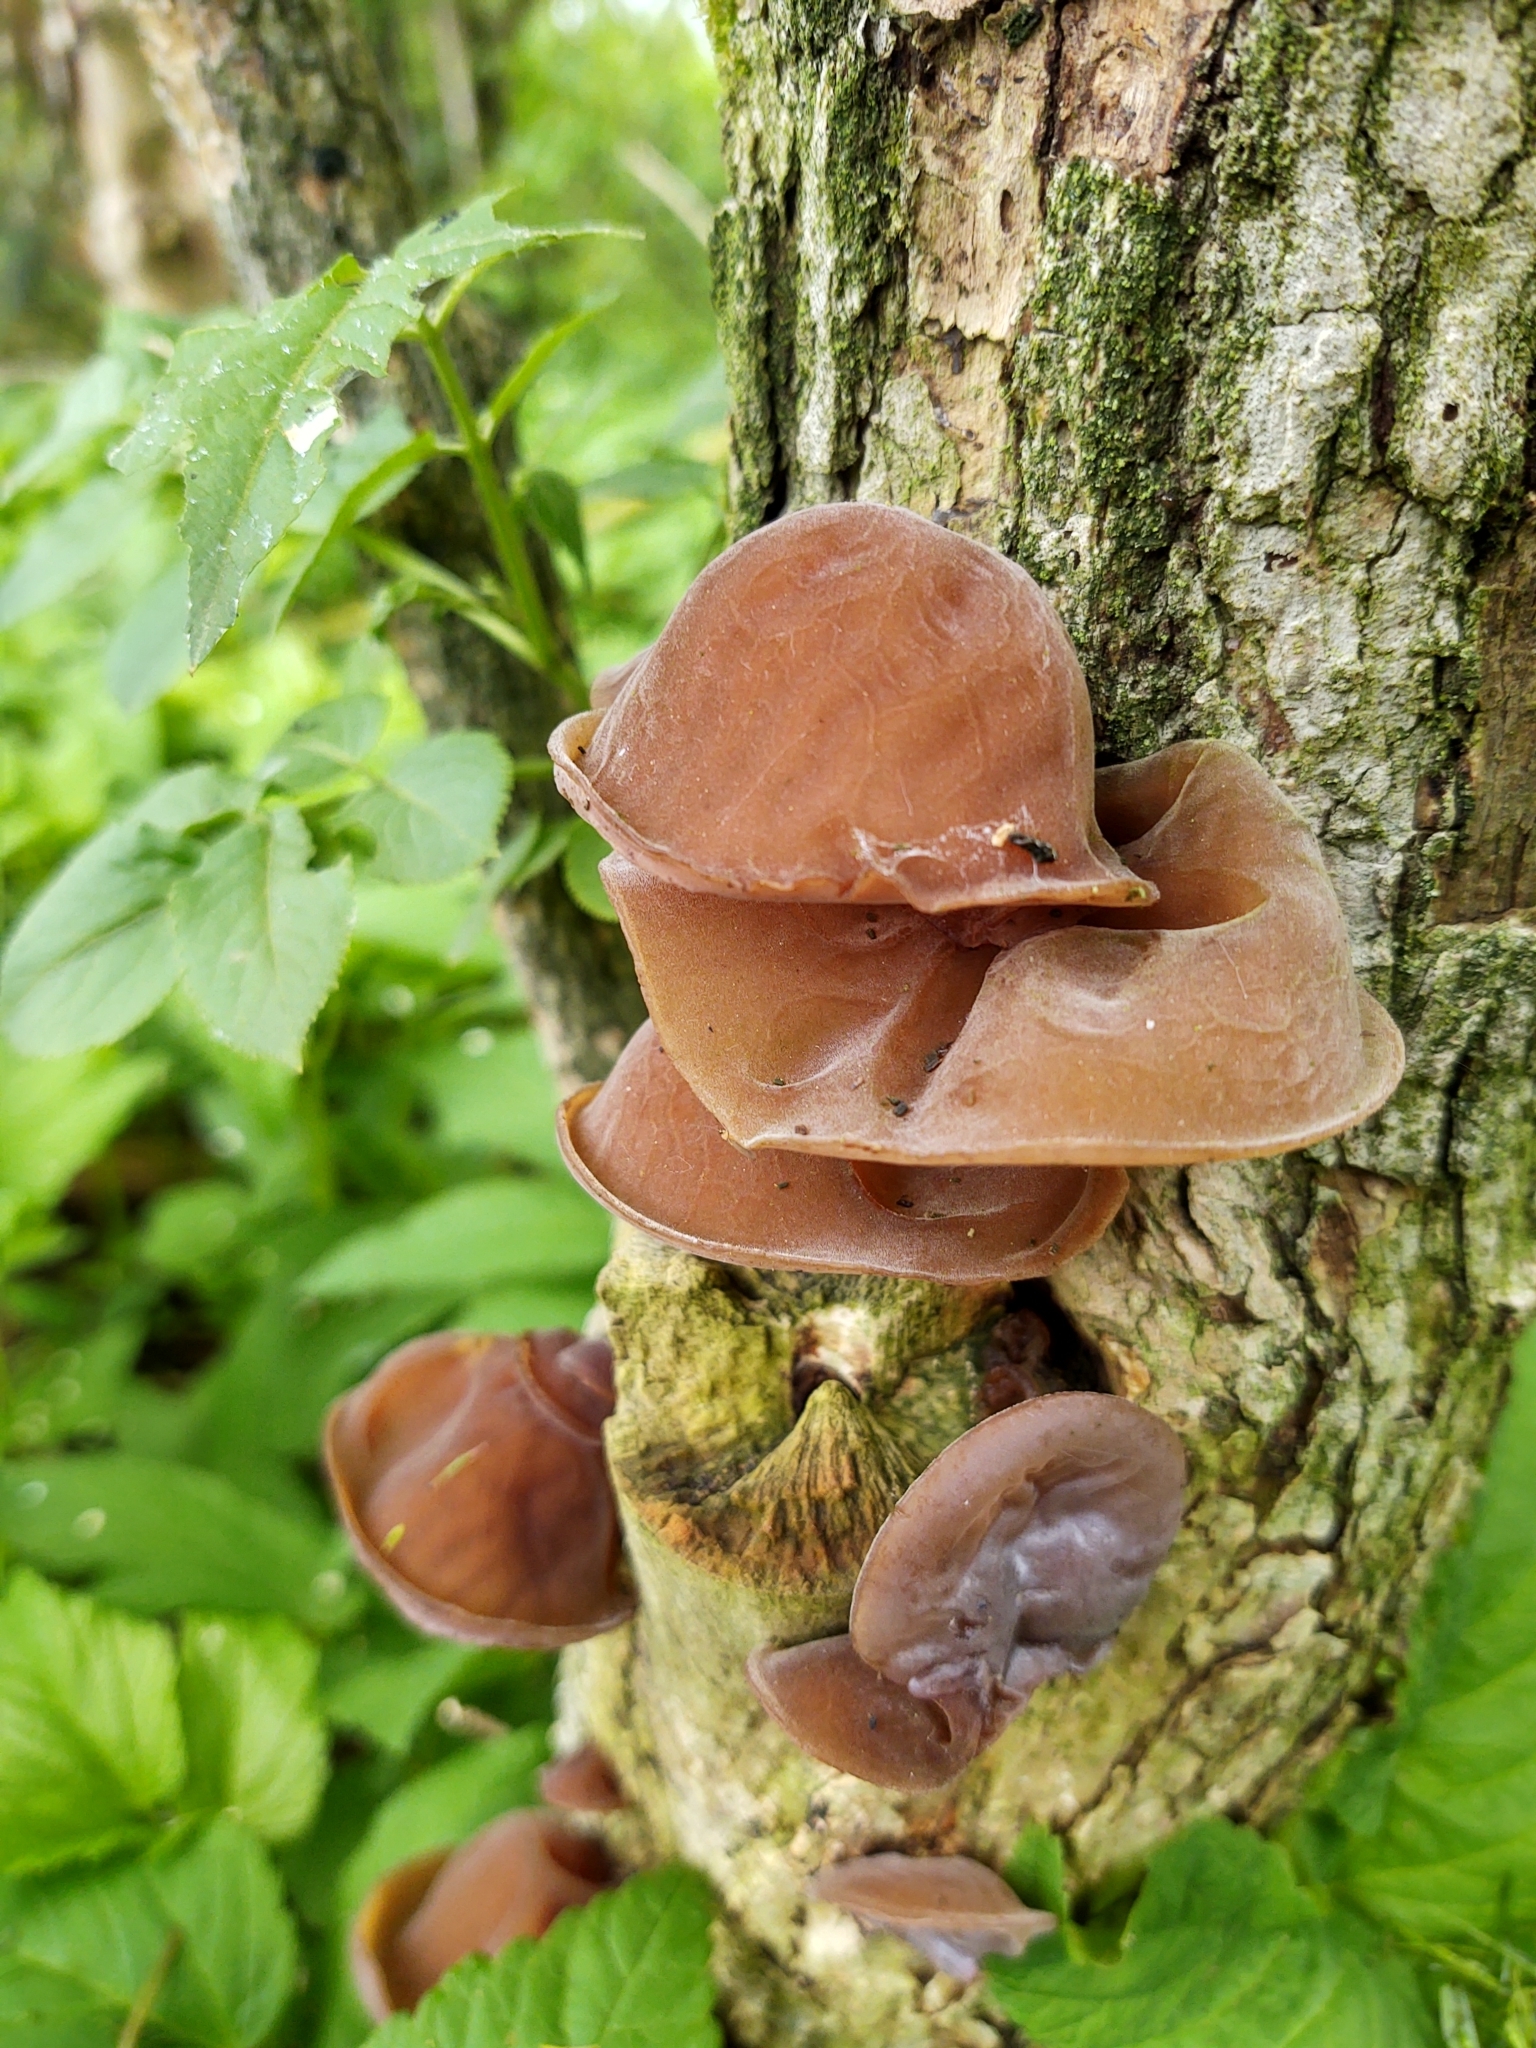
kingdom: Fungi
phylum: Basidiomycota
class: Agaricomycetes
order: Auriculariales
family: Auriculariaceae
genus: Auricularia
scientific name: Auricularia auricula-judae
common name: Jelly ear
